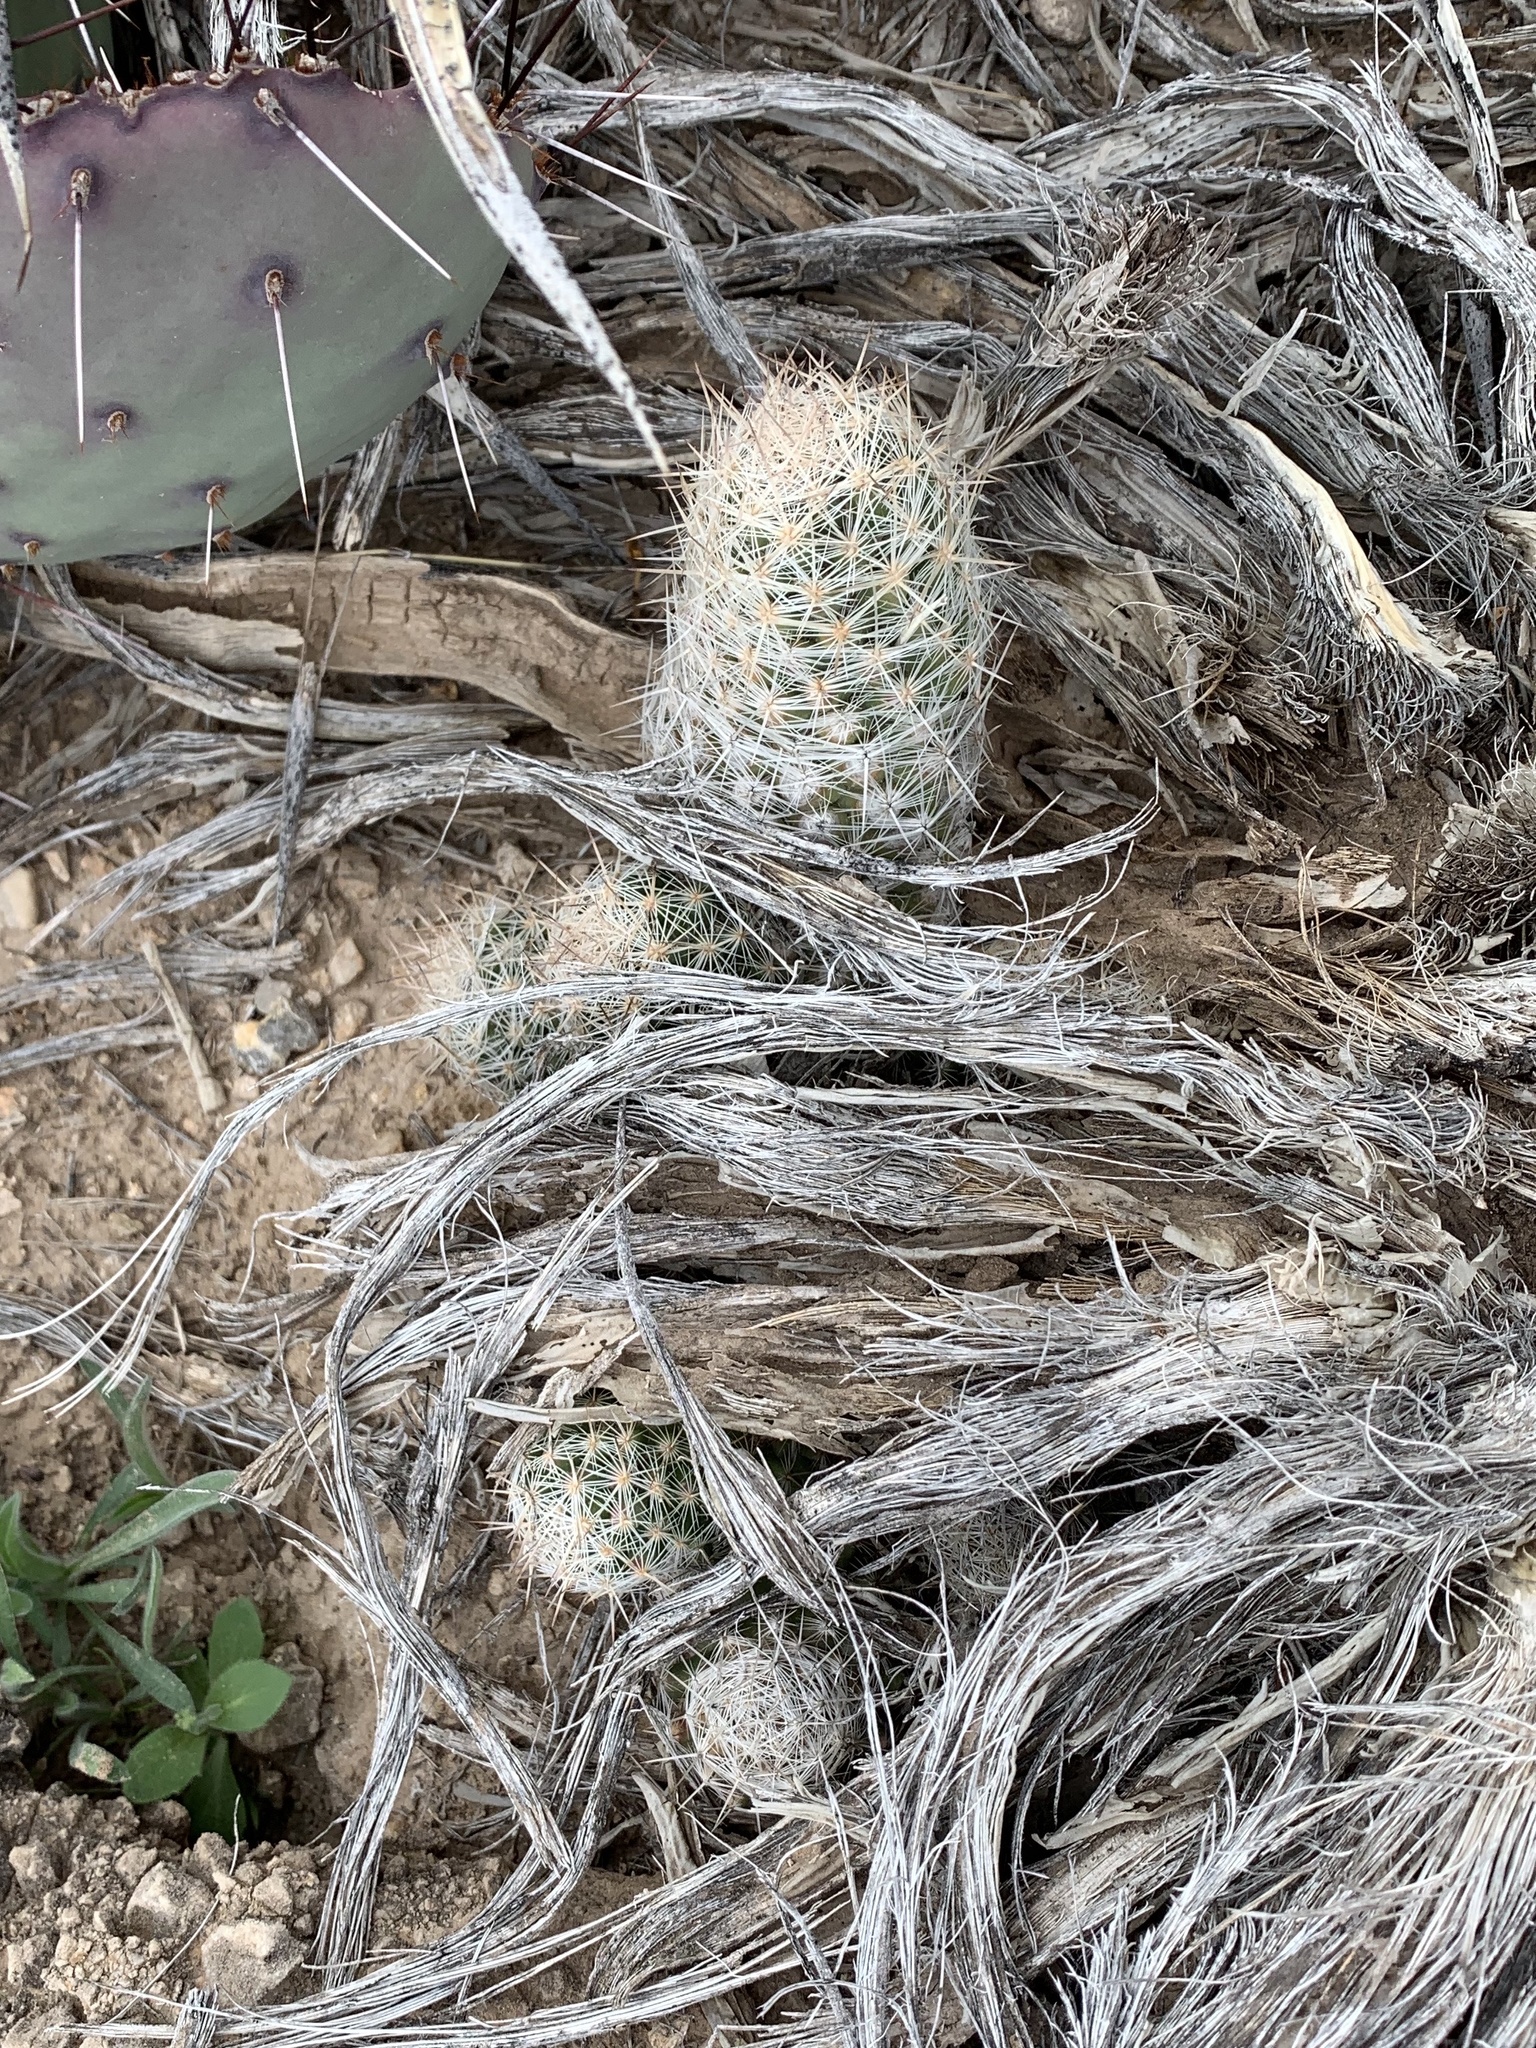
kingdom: Plantae
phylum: Tracheophyta
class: Magnoliopsida
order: Caryophyllales
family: Cactaceae
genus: Pelecyphora
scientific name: Pelecyphora tuberculosa
